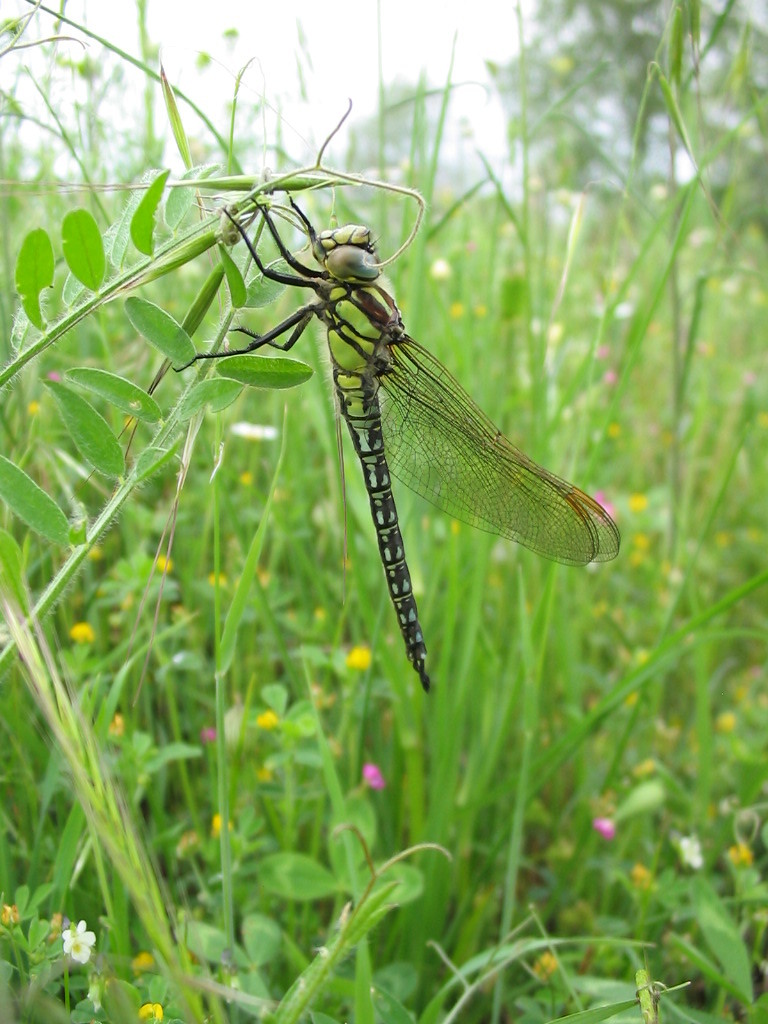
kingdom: Animalia
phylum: Arthropoda
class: Insecta
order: Odonata
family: Aeshnidae
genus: Brachytron
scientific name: Brachytron pratense
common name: Hairy hawker
